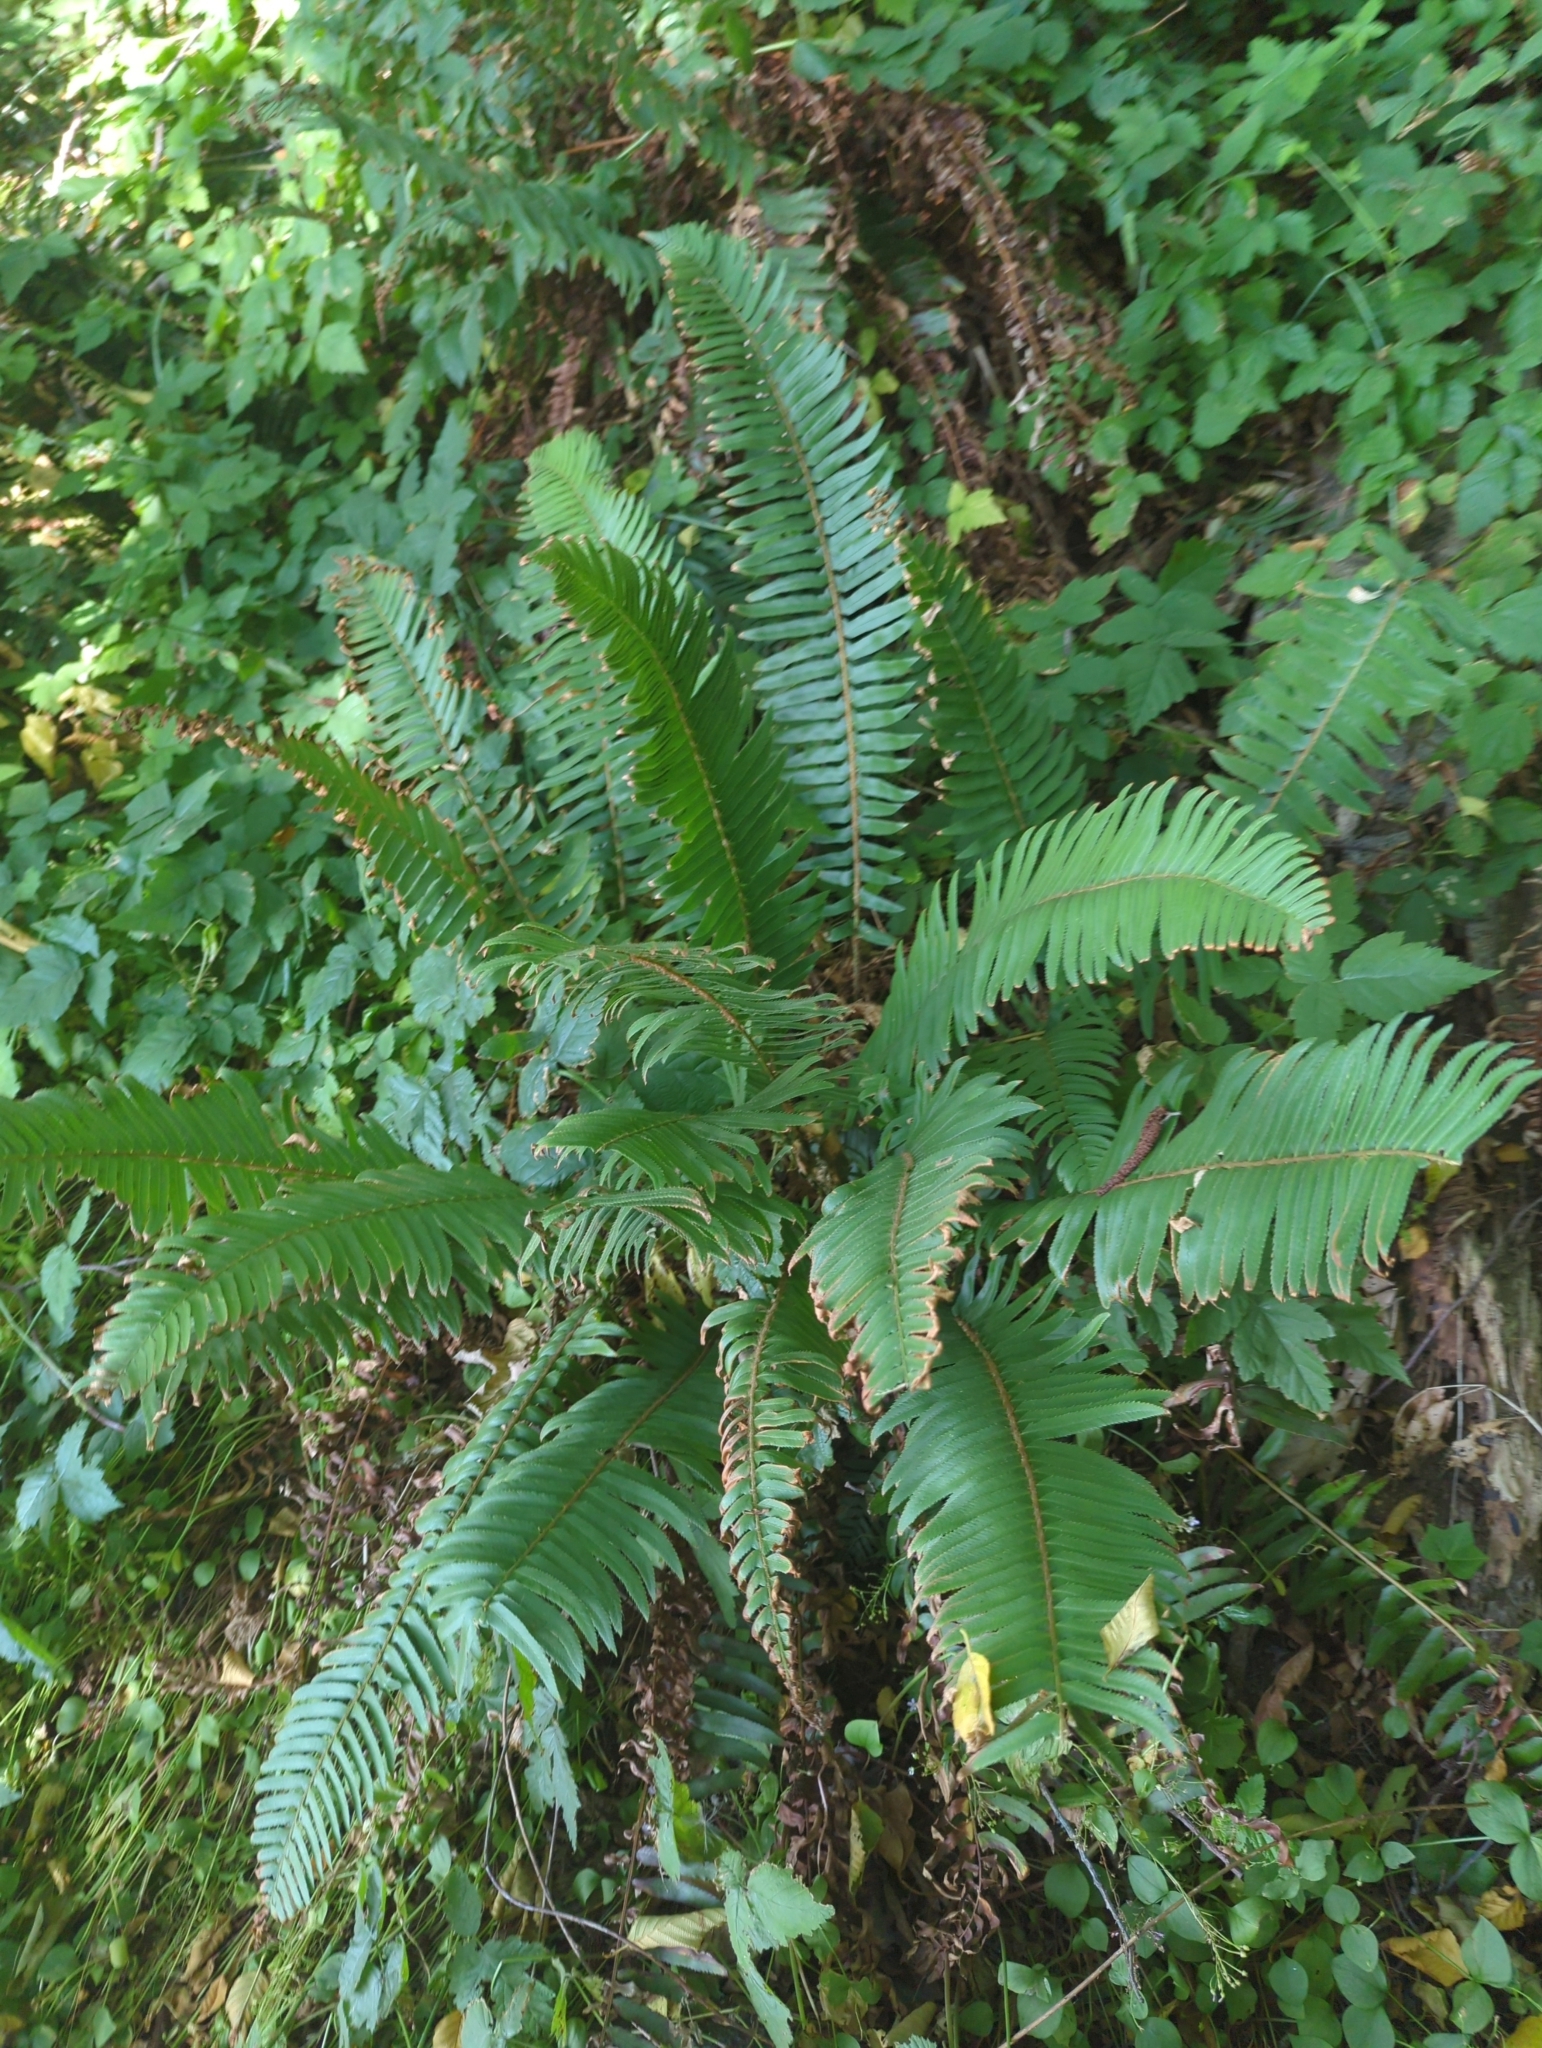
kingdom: Plantae
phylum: Tracheophyta
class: Polypodiopsida
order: Polypodiales
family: Dryopteridaceae
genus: Polystichum
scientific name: Polystichum munitum
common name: Western sword-fern
